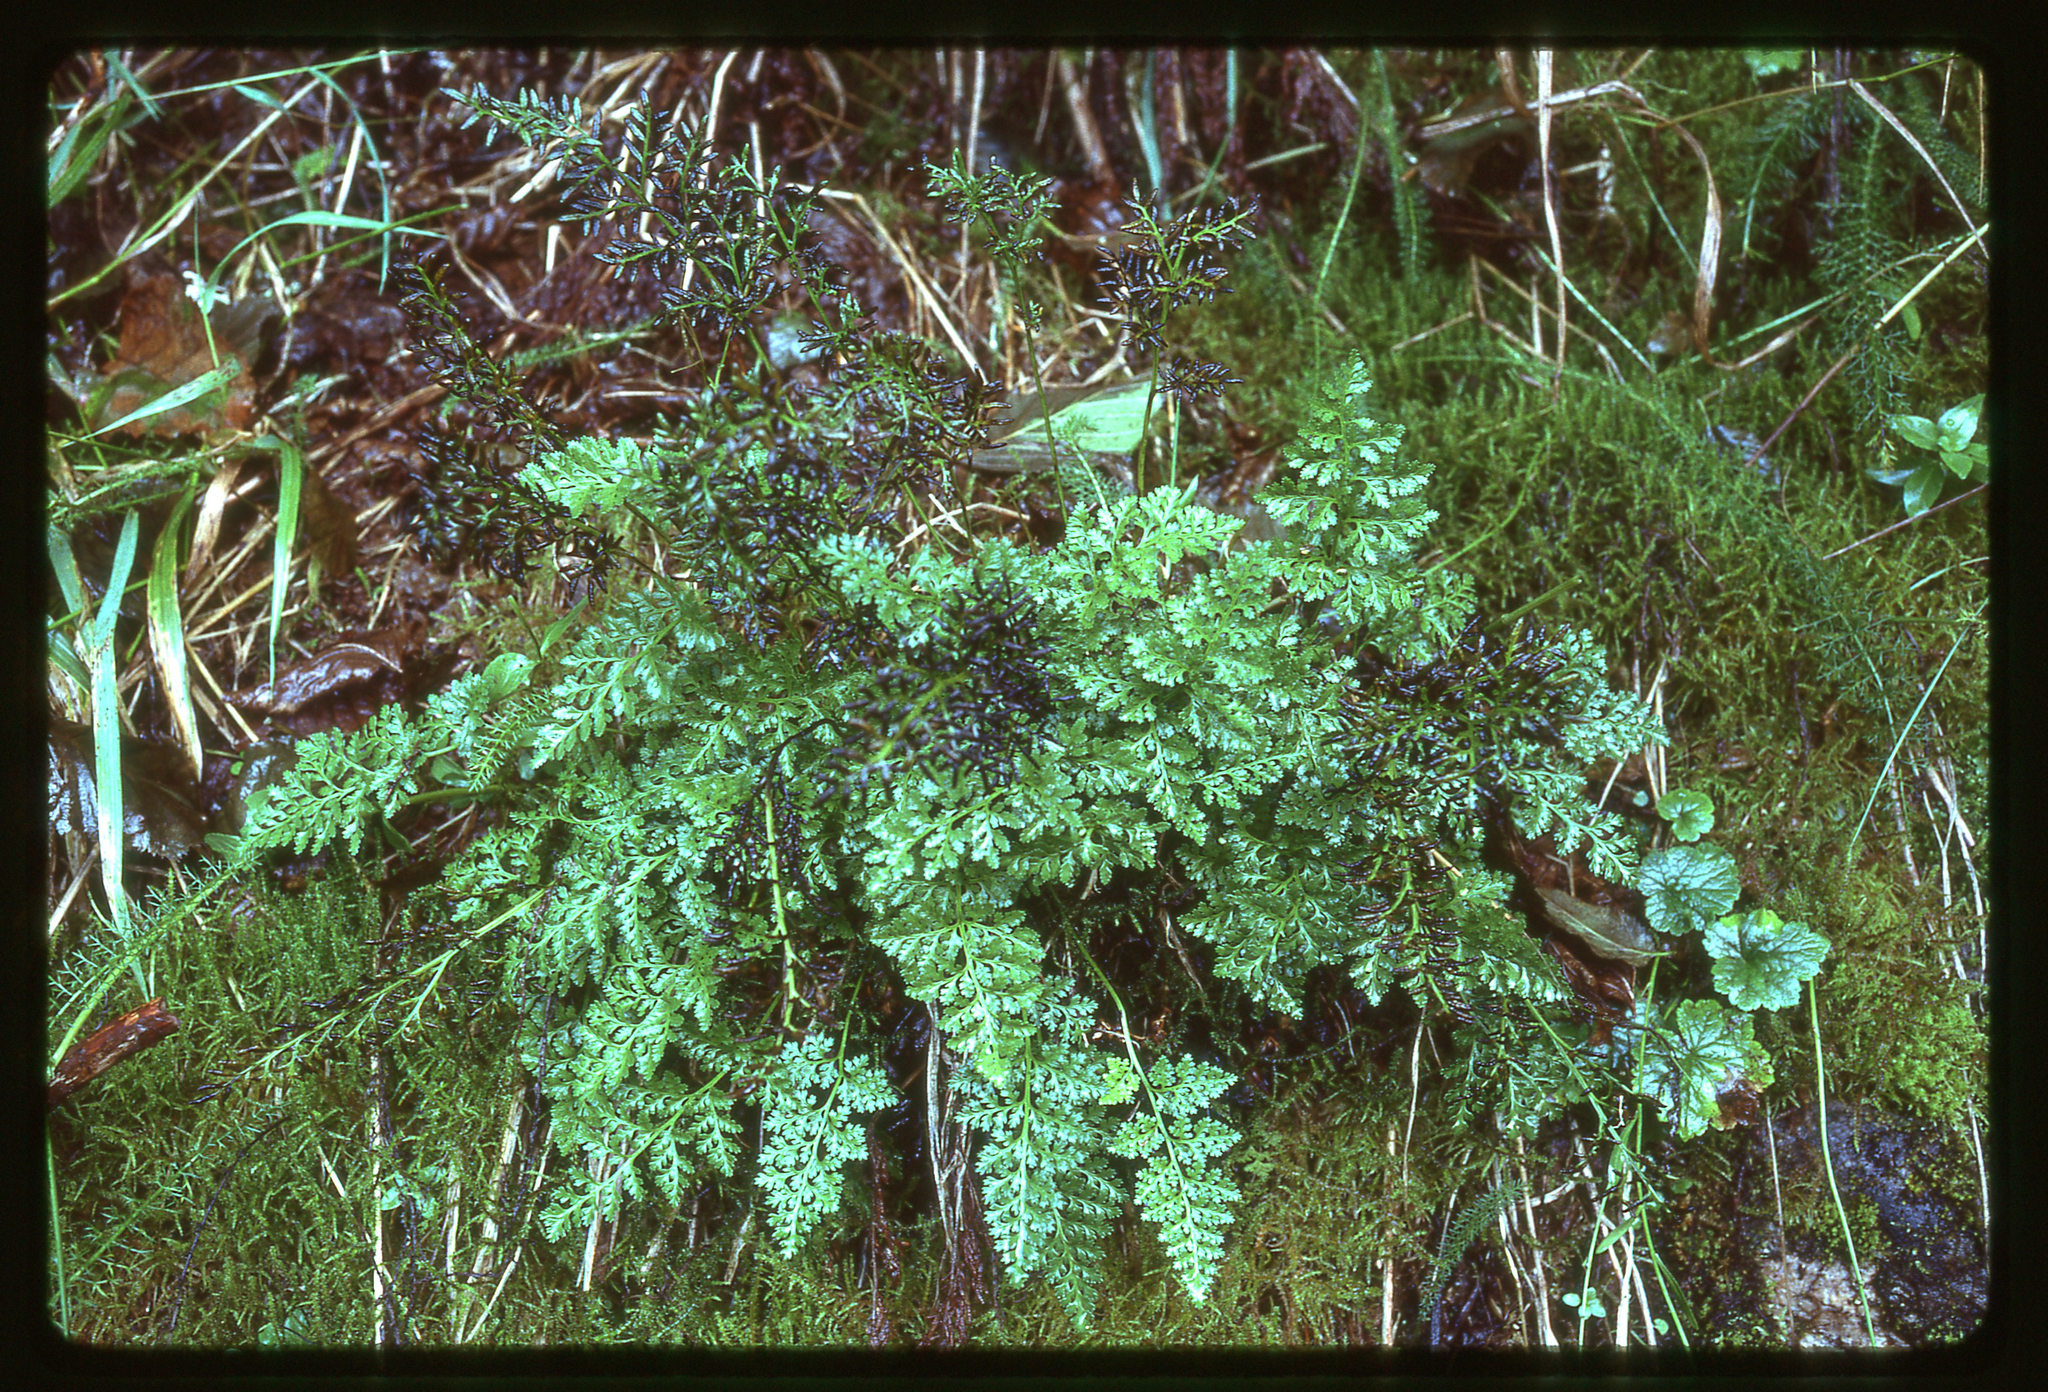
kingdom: Plantae
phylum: Tracheophyta
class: Polypodiopsida
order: Polypodiales
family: Pteridaceae
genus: Cryptogramma
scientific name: Cryptogramma sitchensis
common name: Alaska parsley fern
